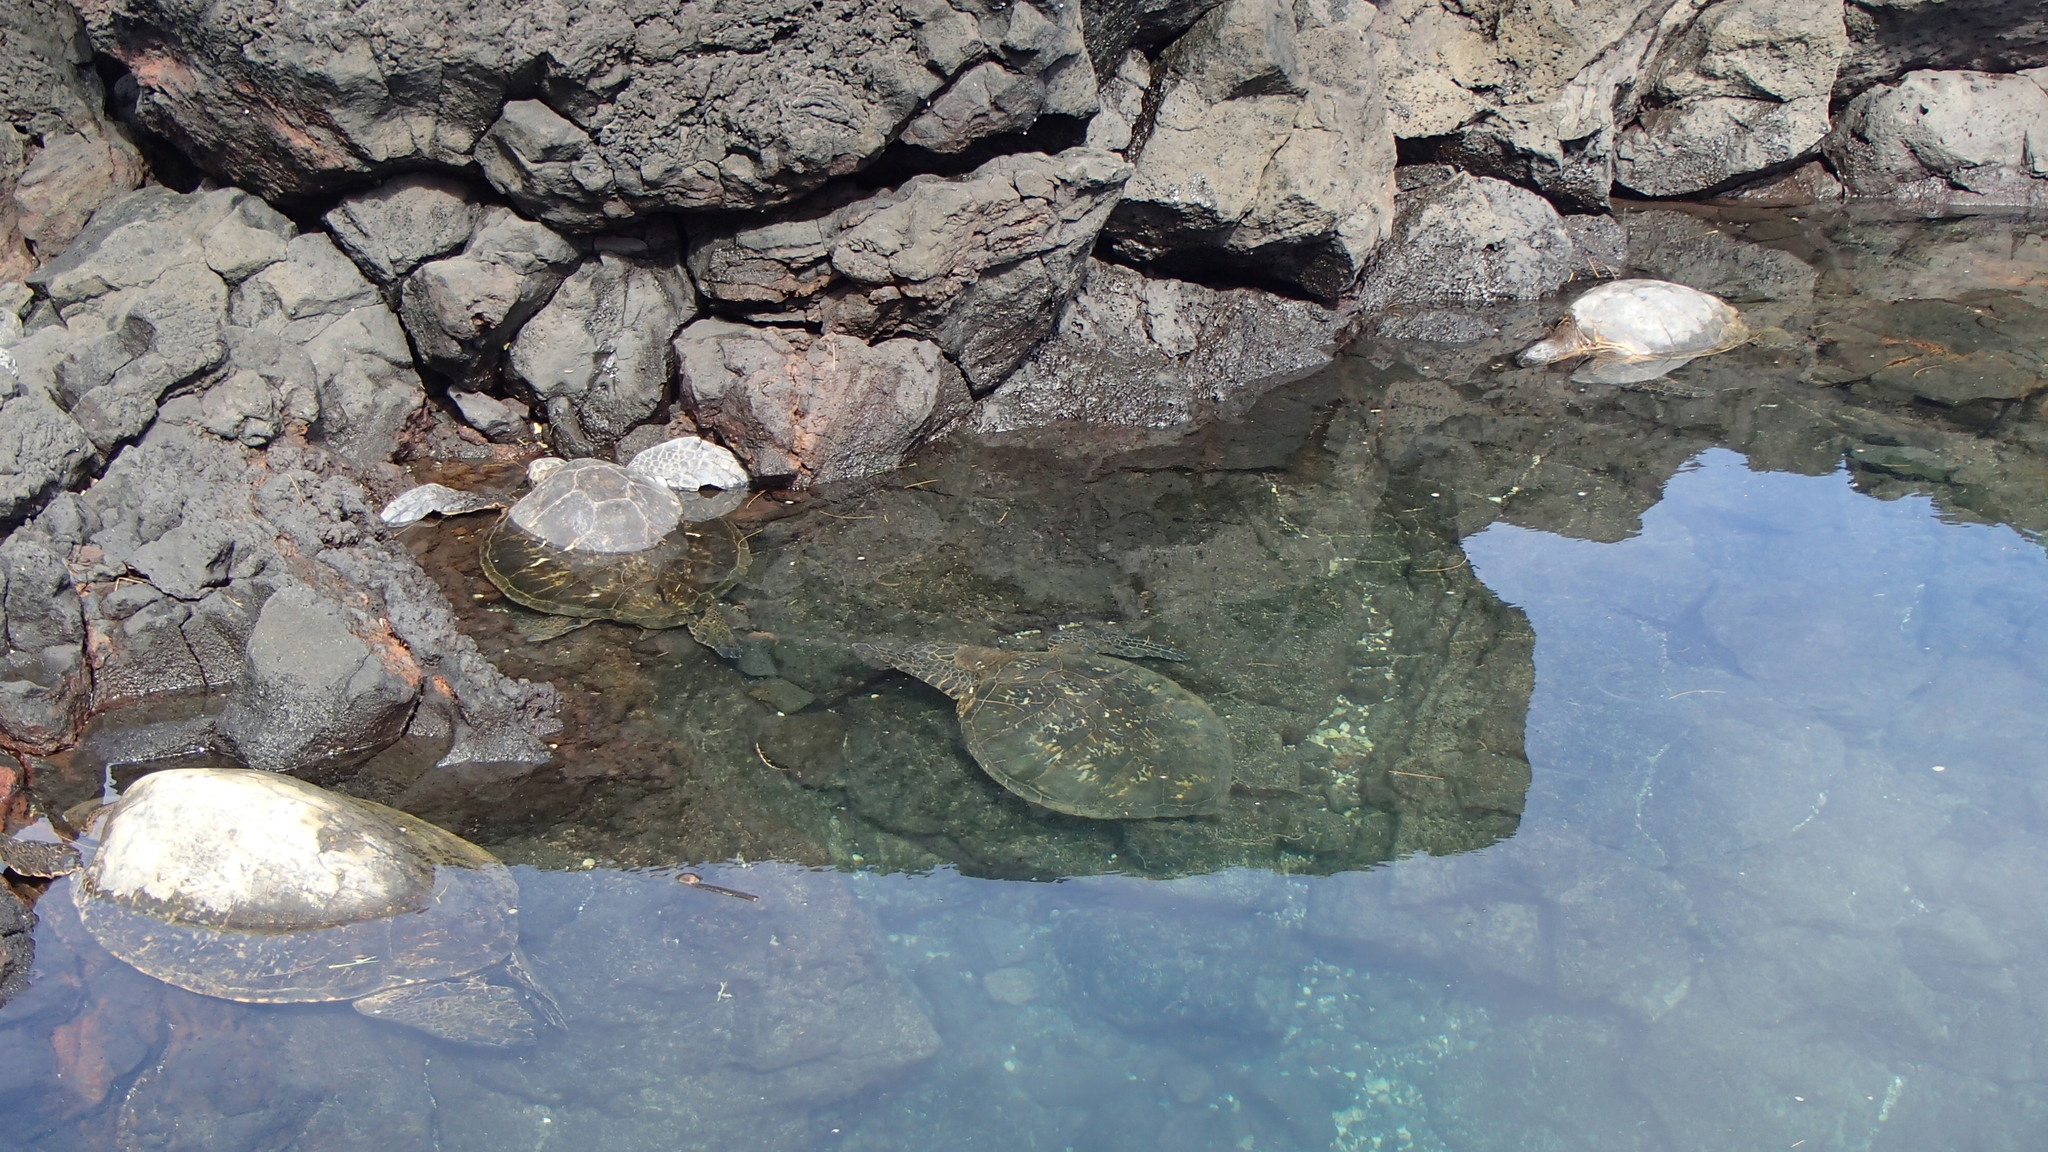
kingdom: Animalia
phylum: Chordata
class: Testudines
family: Cheloniidae
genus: Chelonia
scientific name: Chelonia mydas
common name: Green turtle
